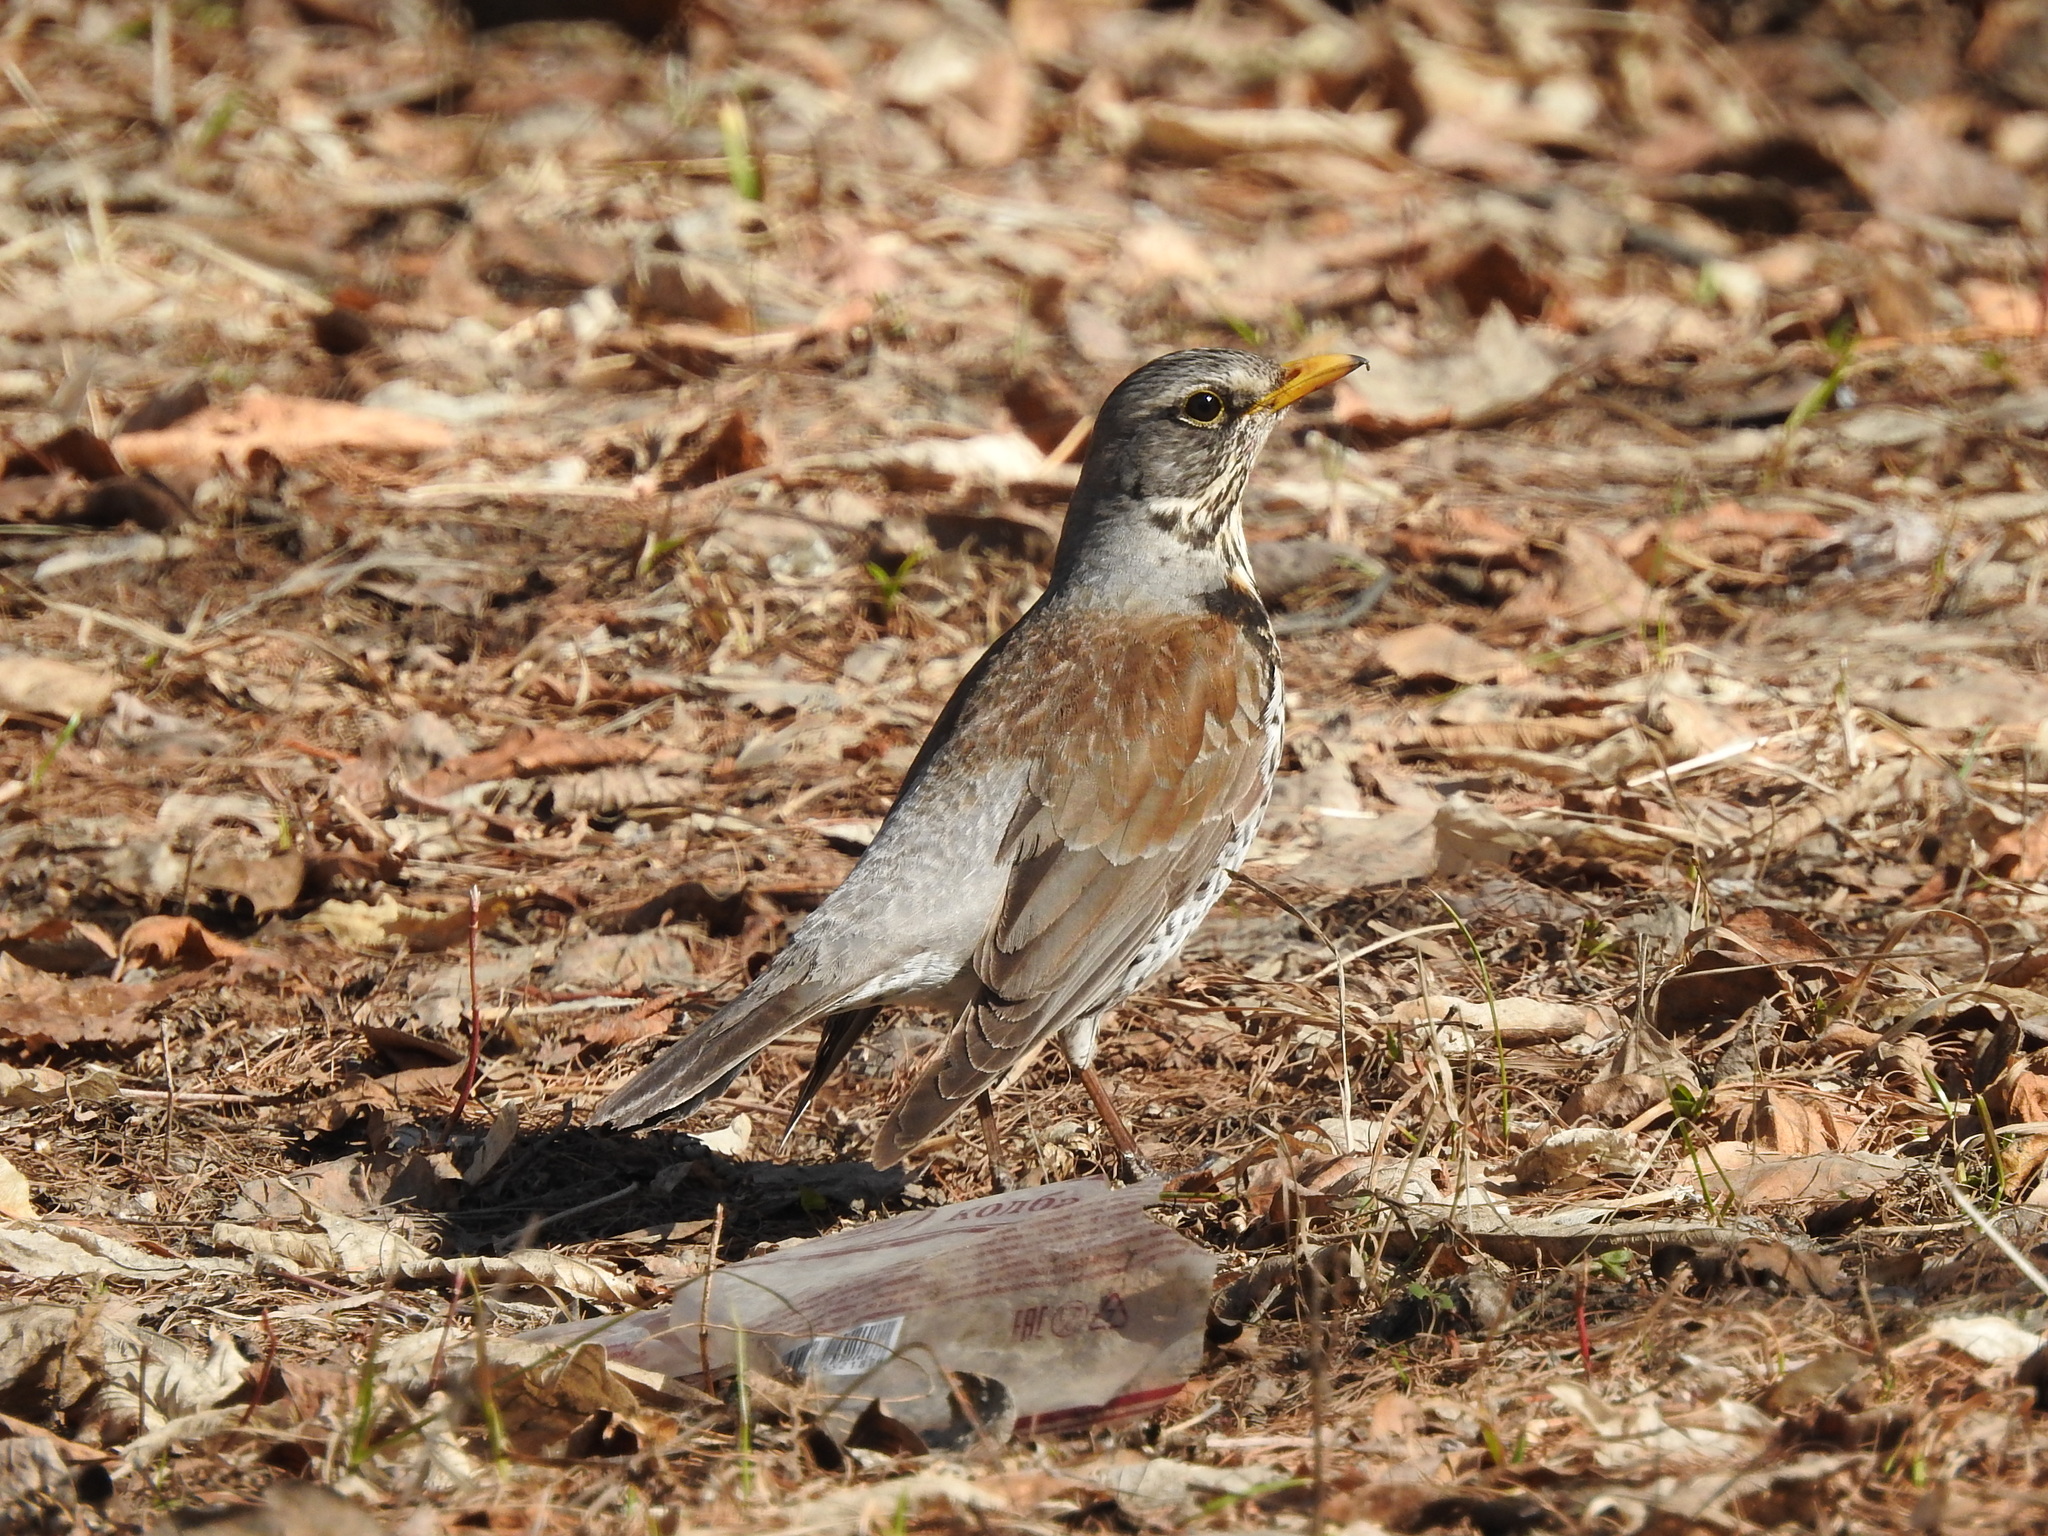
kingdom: Animalia
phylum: Chordata
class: Aves
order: Passeriformes
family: Turdidae
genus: Turdus
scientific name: Turdus pilaris
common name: Fieldfare
